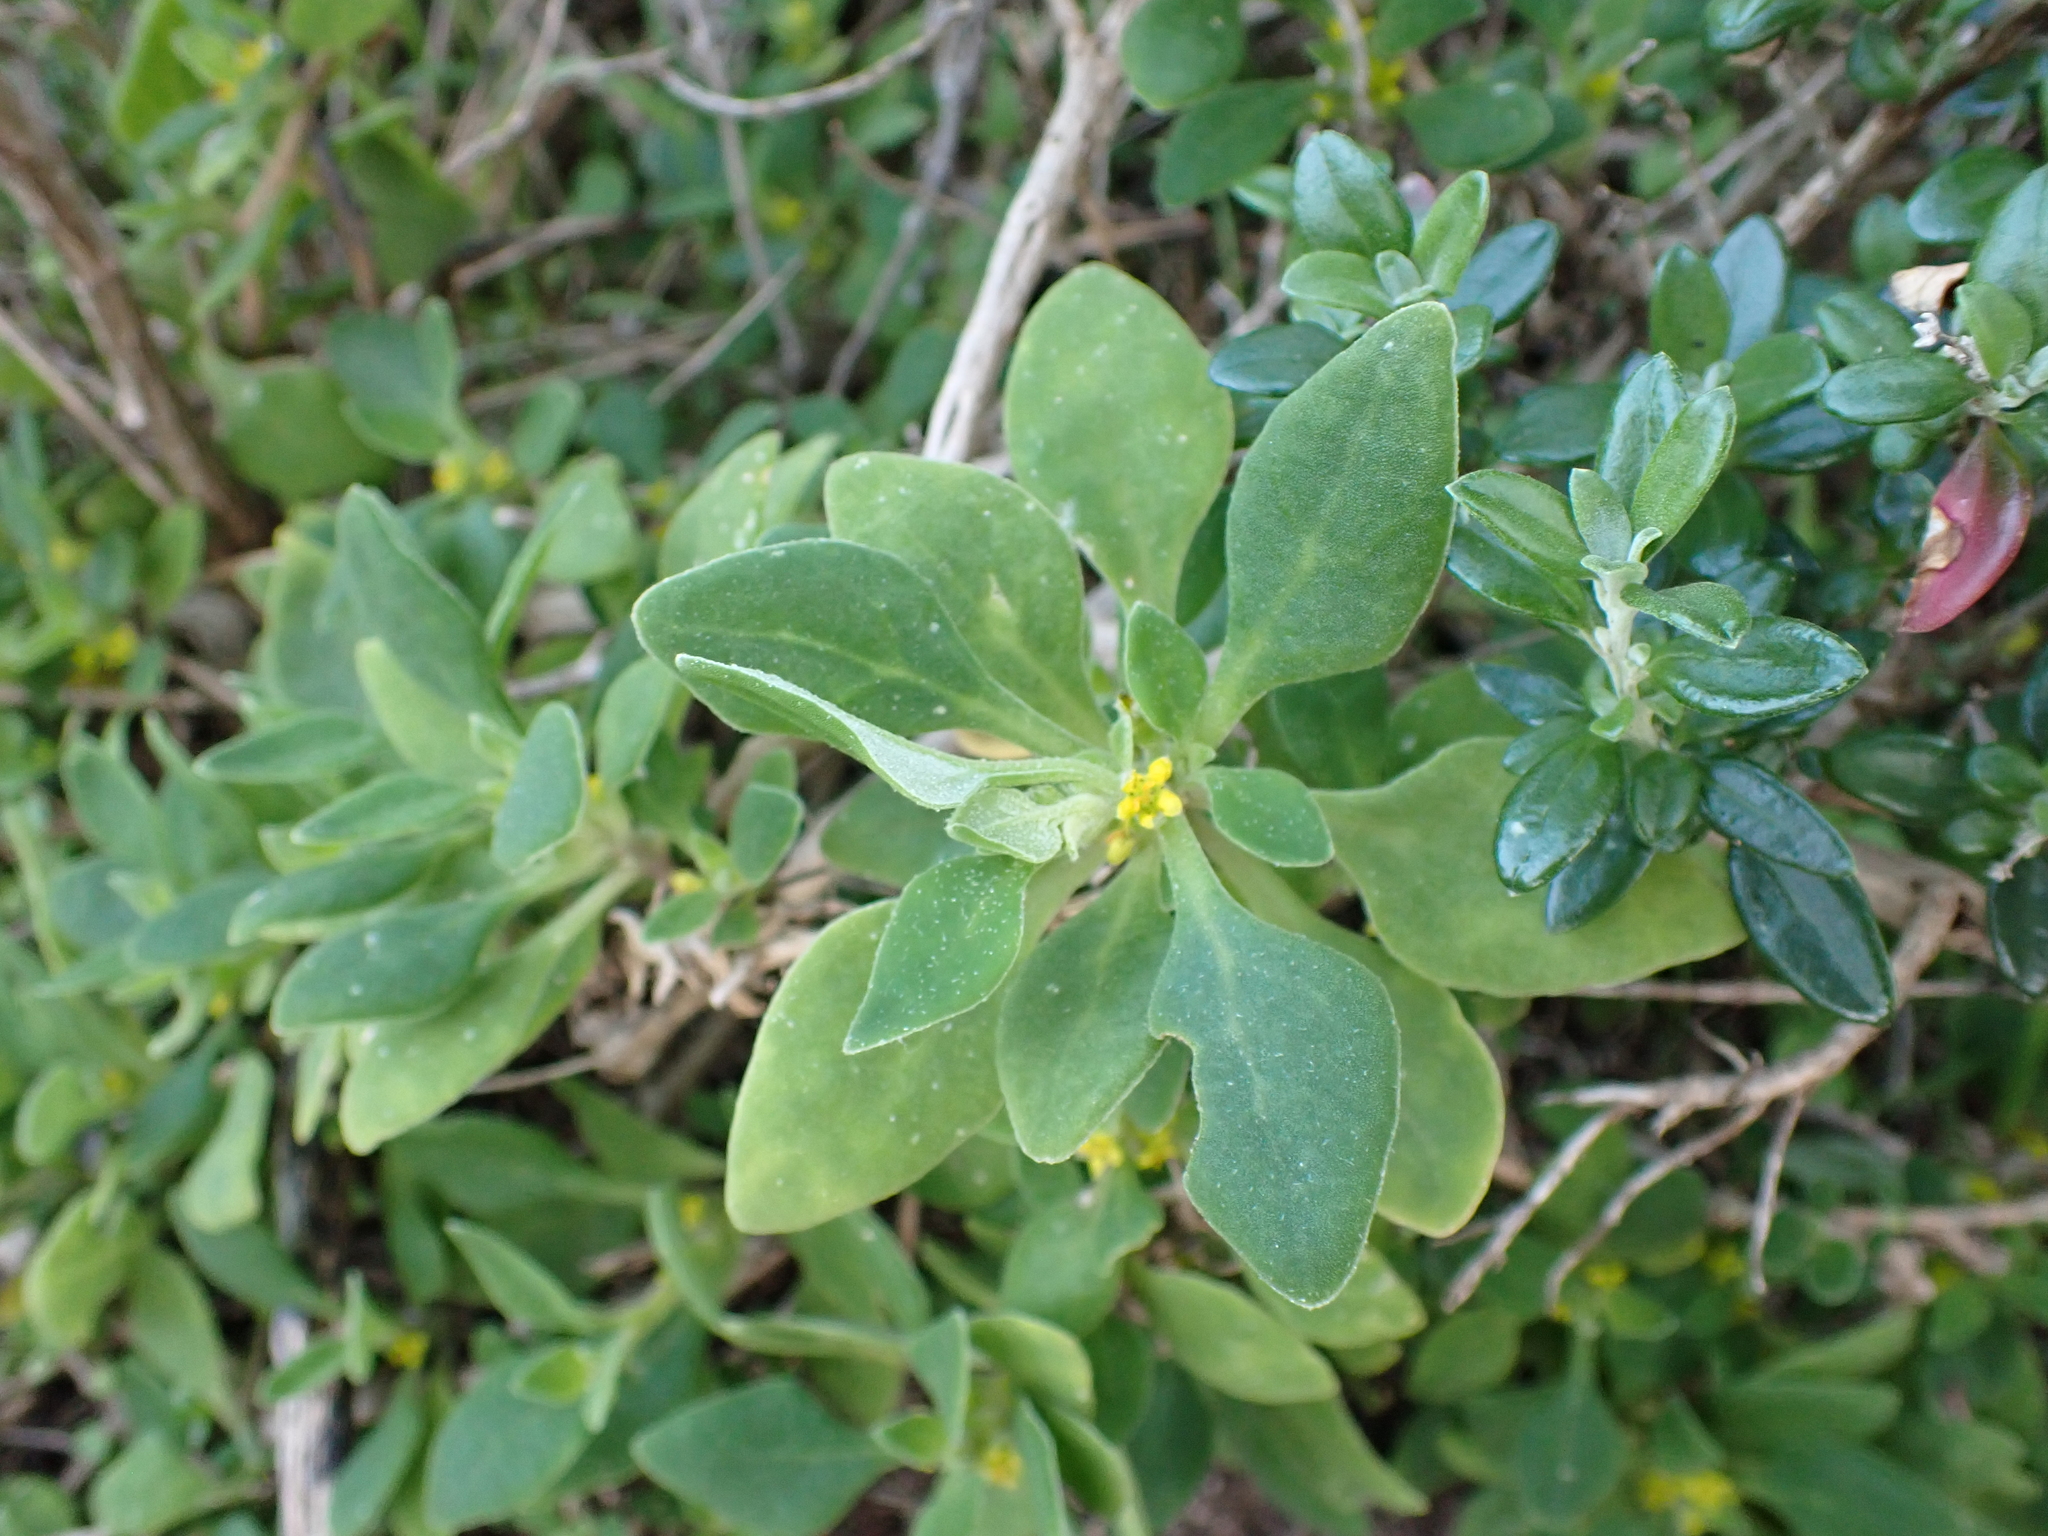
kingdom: Plantae
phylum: Tracheophyta
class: Magnoliopsida
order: Caryophyllales
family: Aizoaceae
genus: Tetragonia
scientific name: Tetragonia implexicoma
